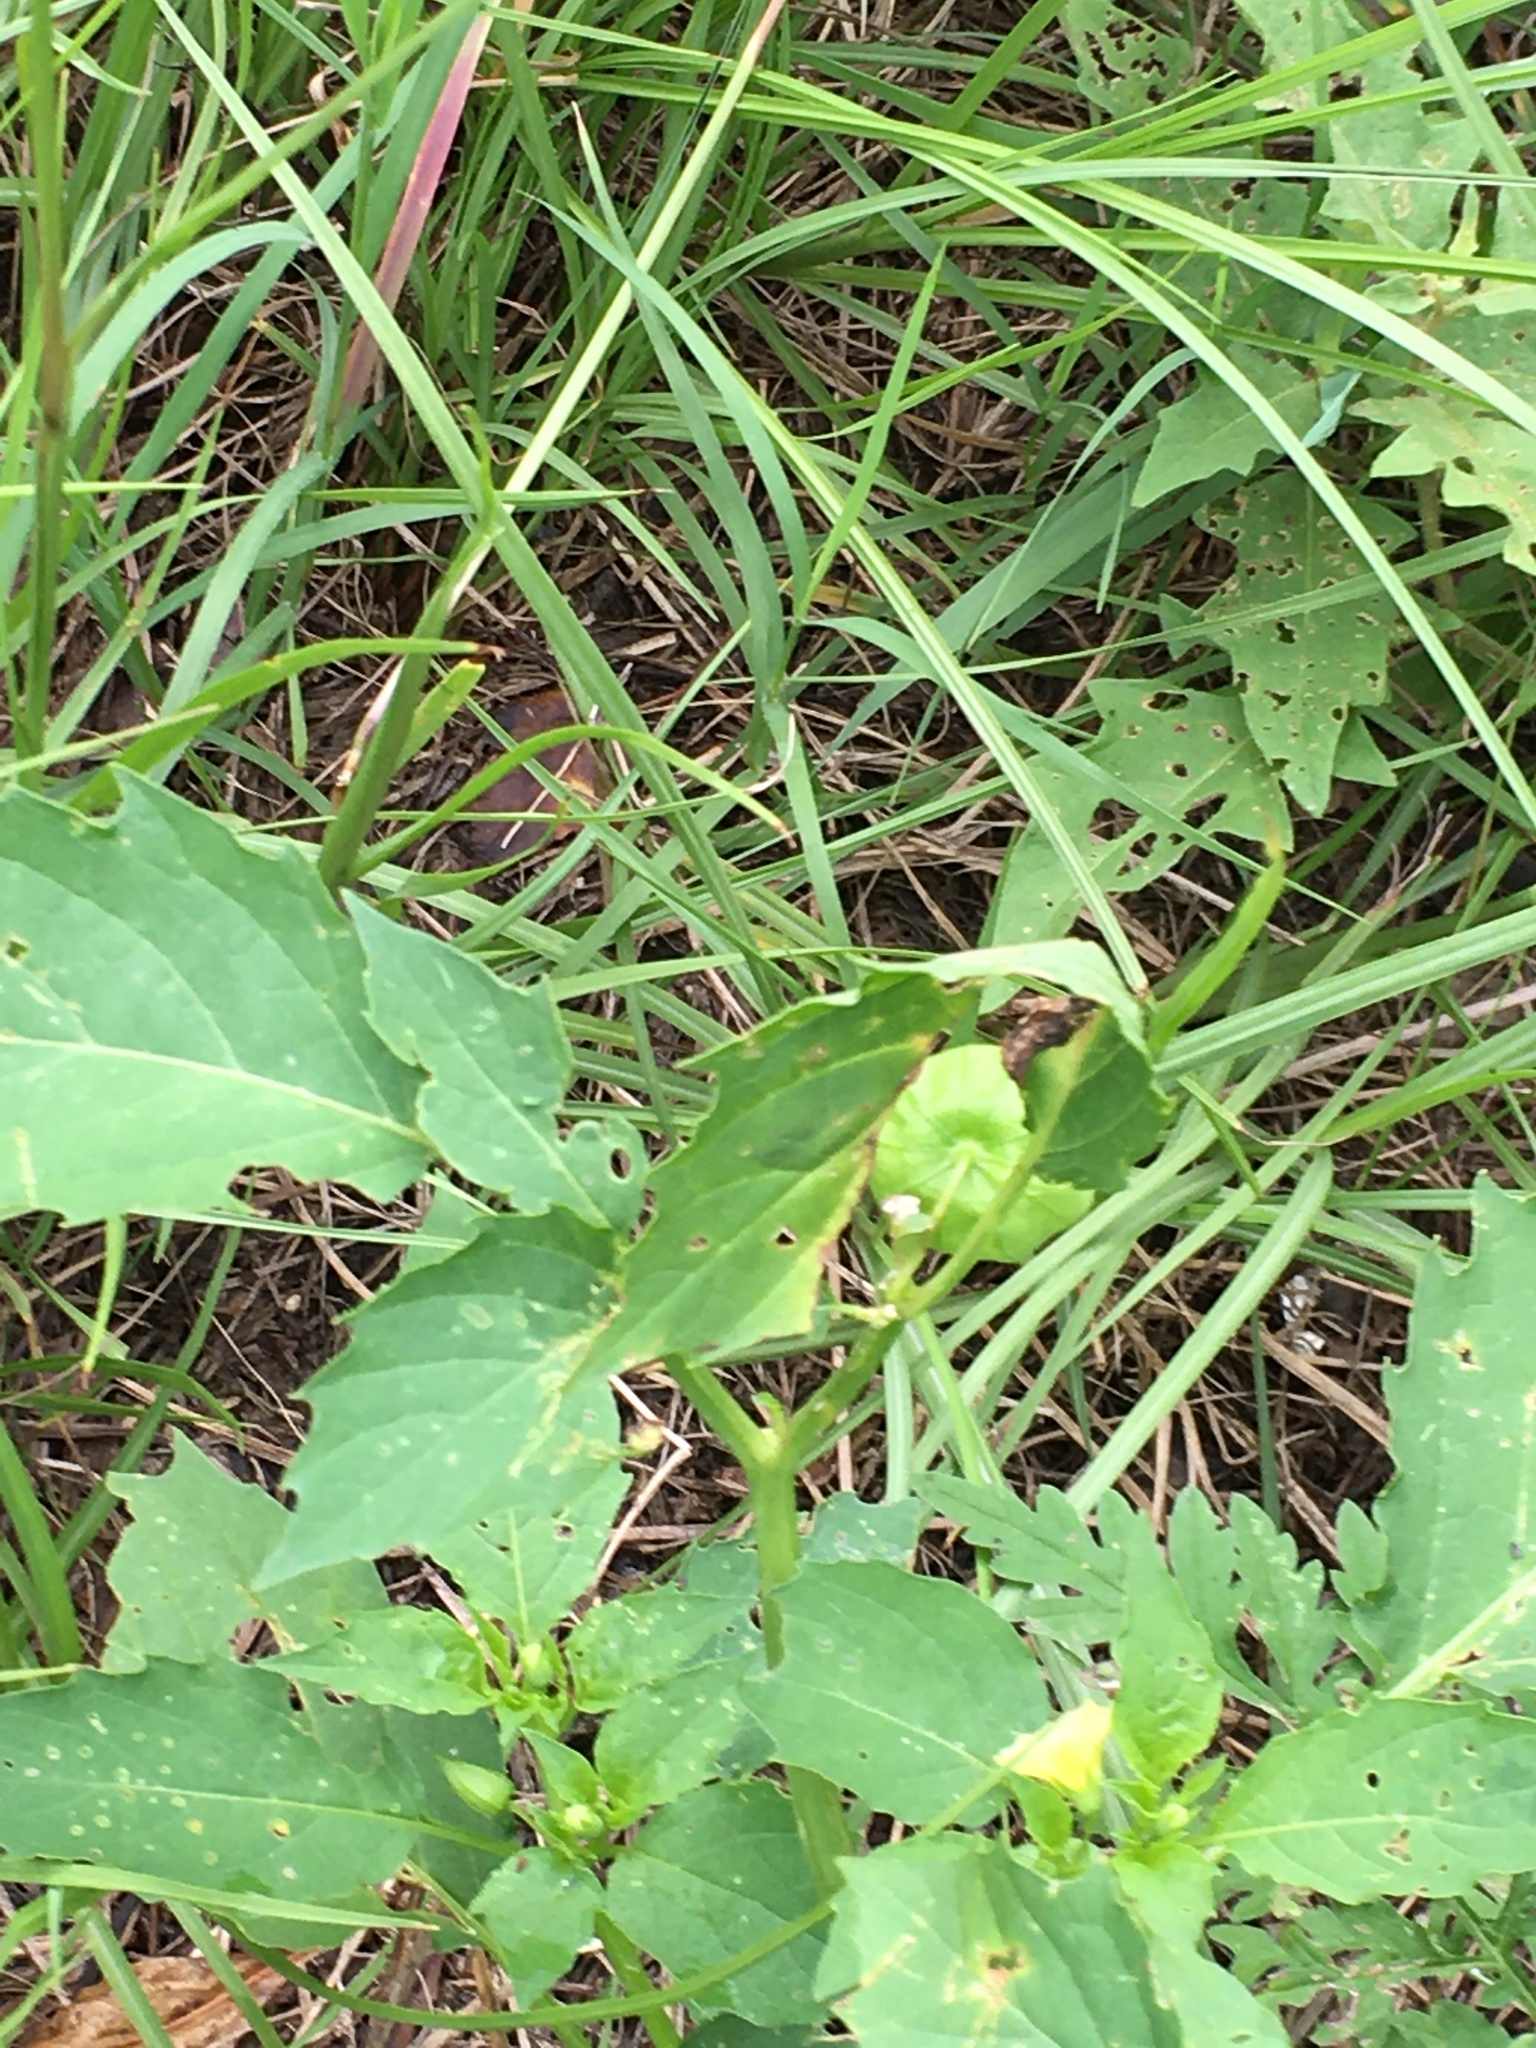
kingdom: Plantae
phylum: Tracheophyta
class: Magnoliopsida
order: Solanales
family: Solanaceae
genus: Physalis
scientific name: Physalis angulata
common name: Angular winter-cherry
